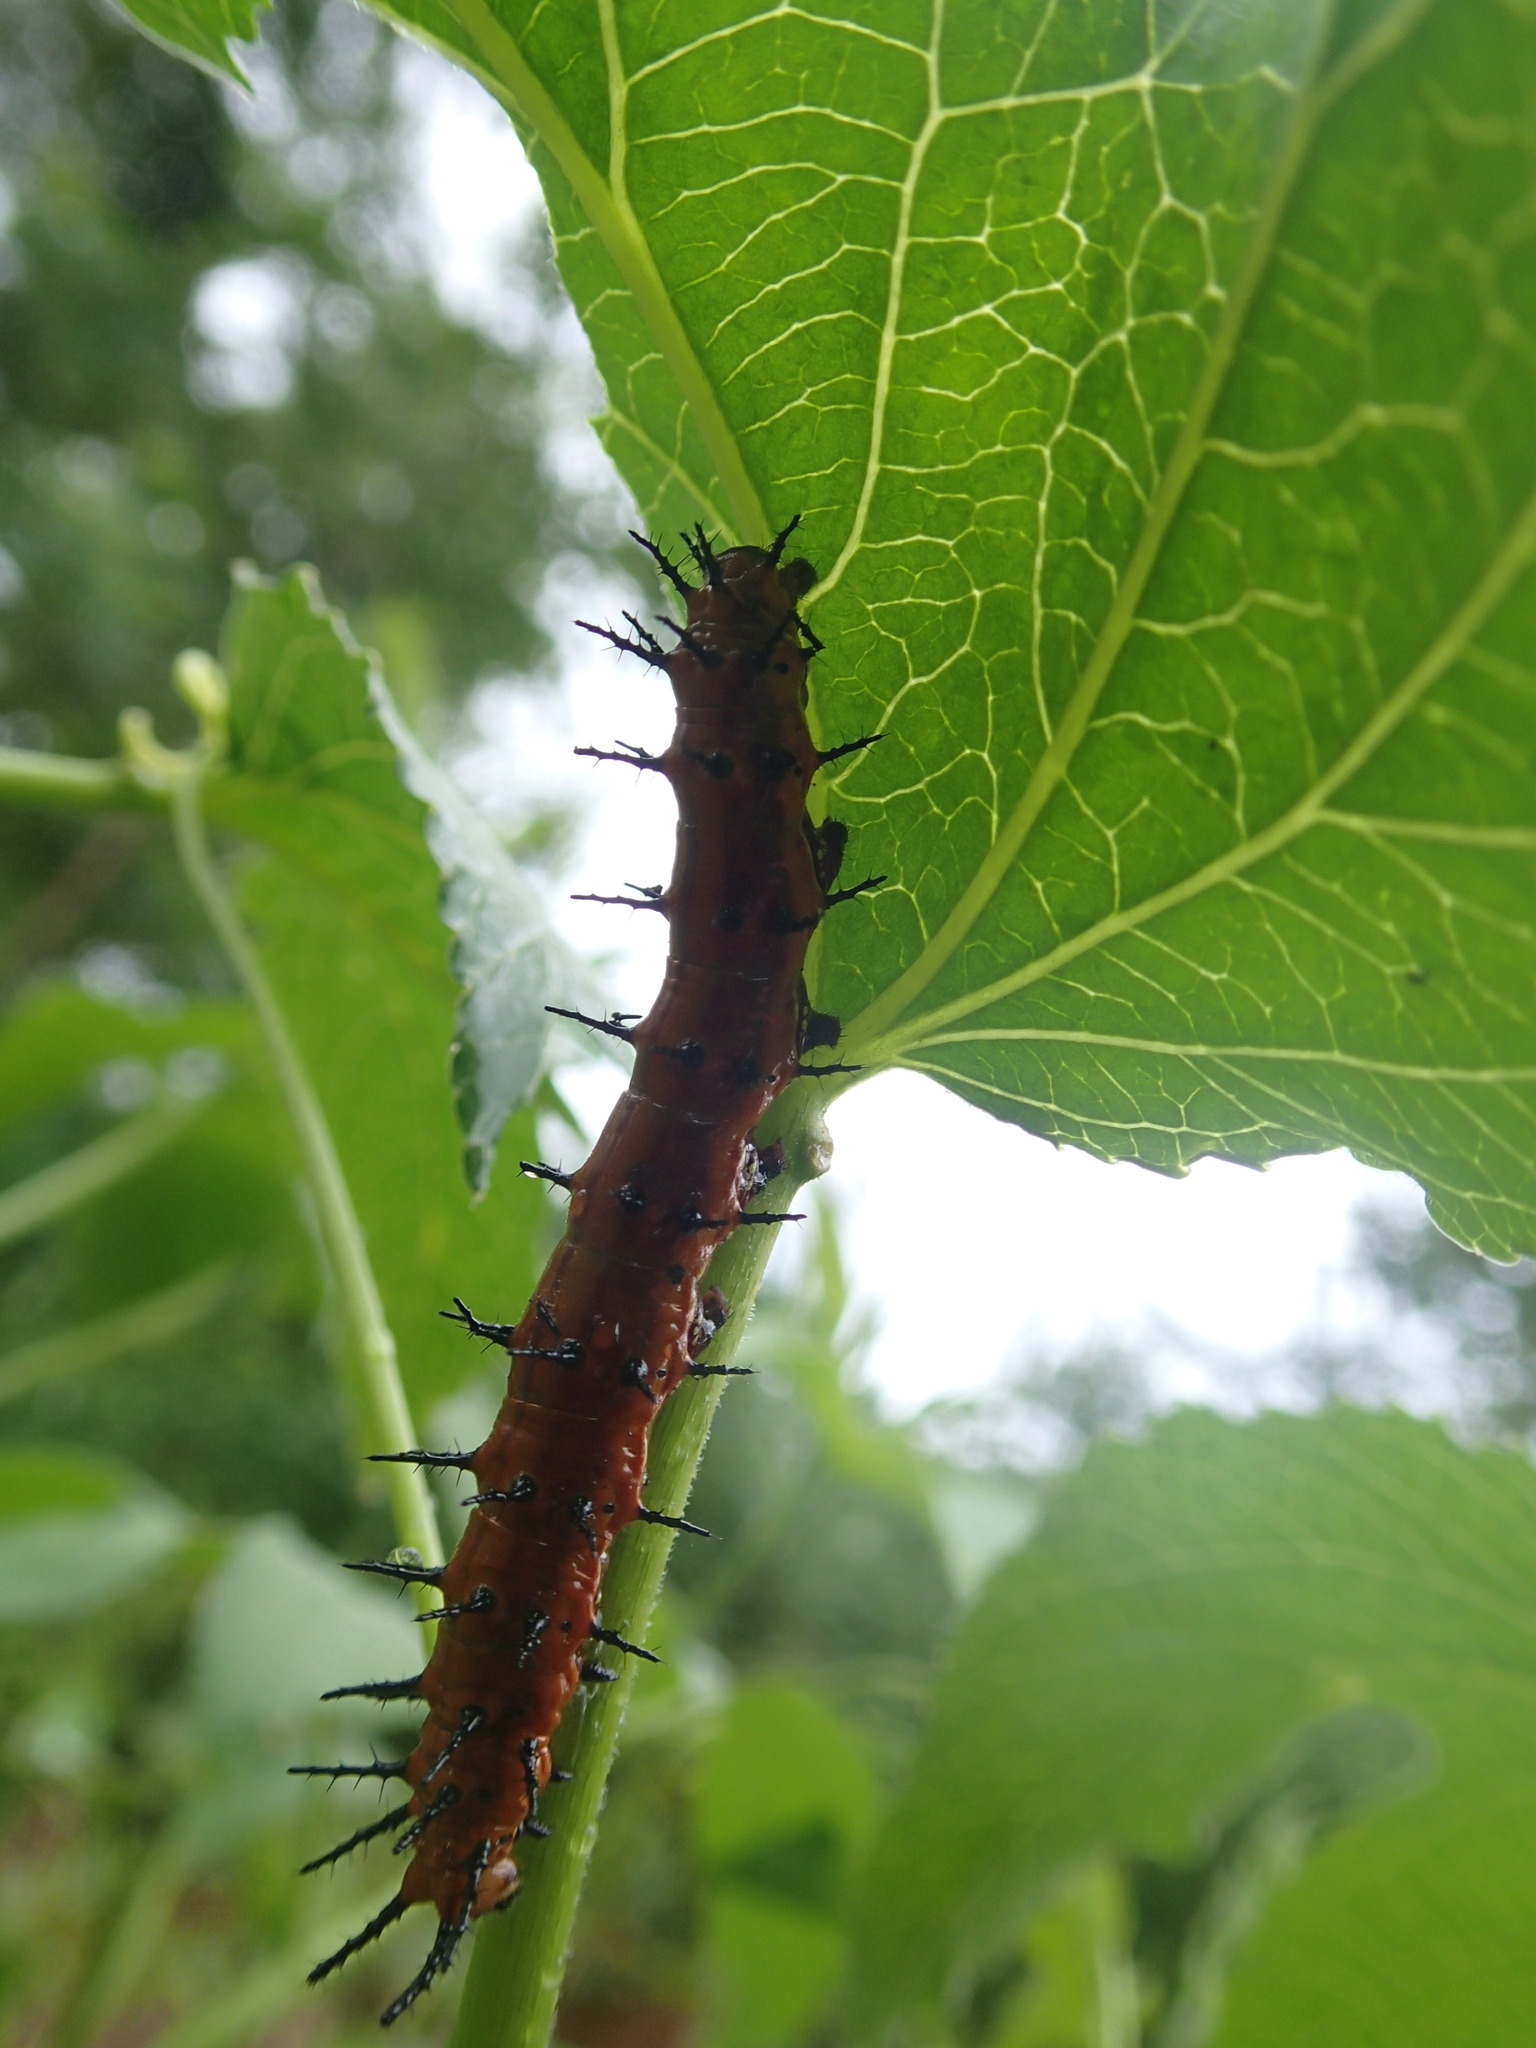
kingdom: Animalia
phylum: Arthropoda
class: Insecta
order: Lepidoptera
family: Nymphalidae
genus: Dione
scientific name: Dione vanillae
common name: Gulf fritillary
